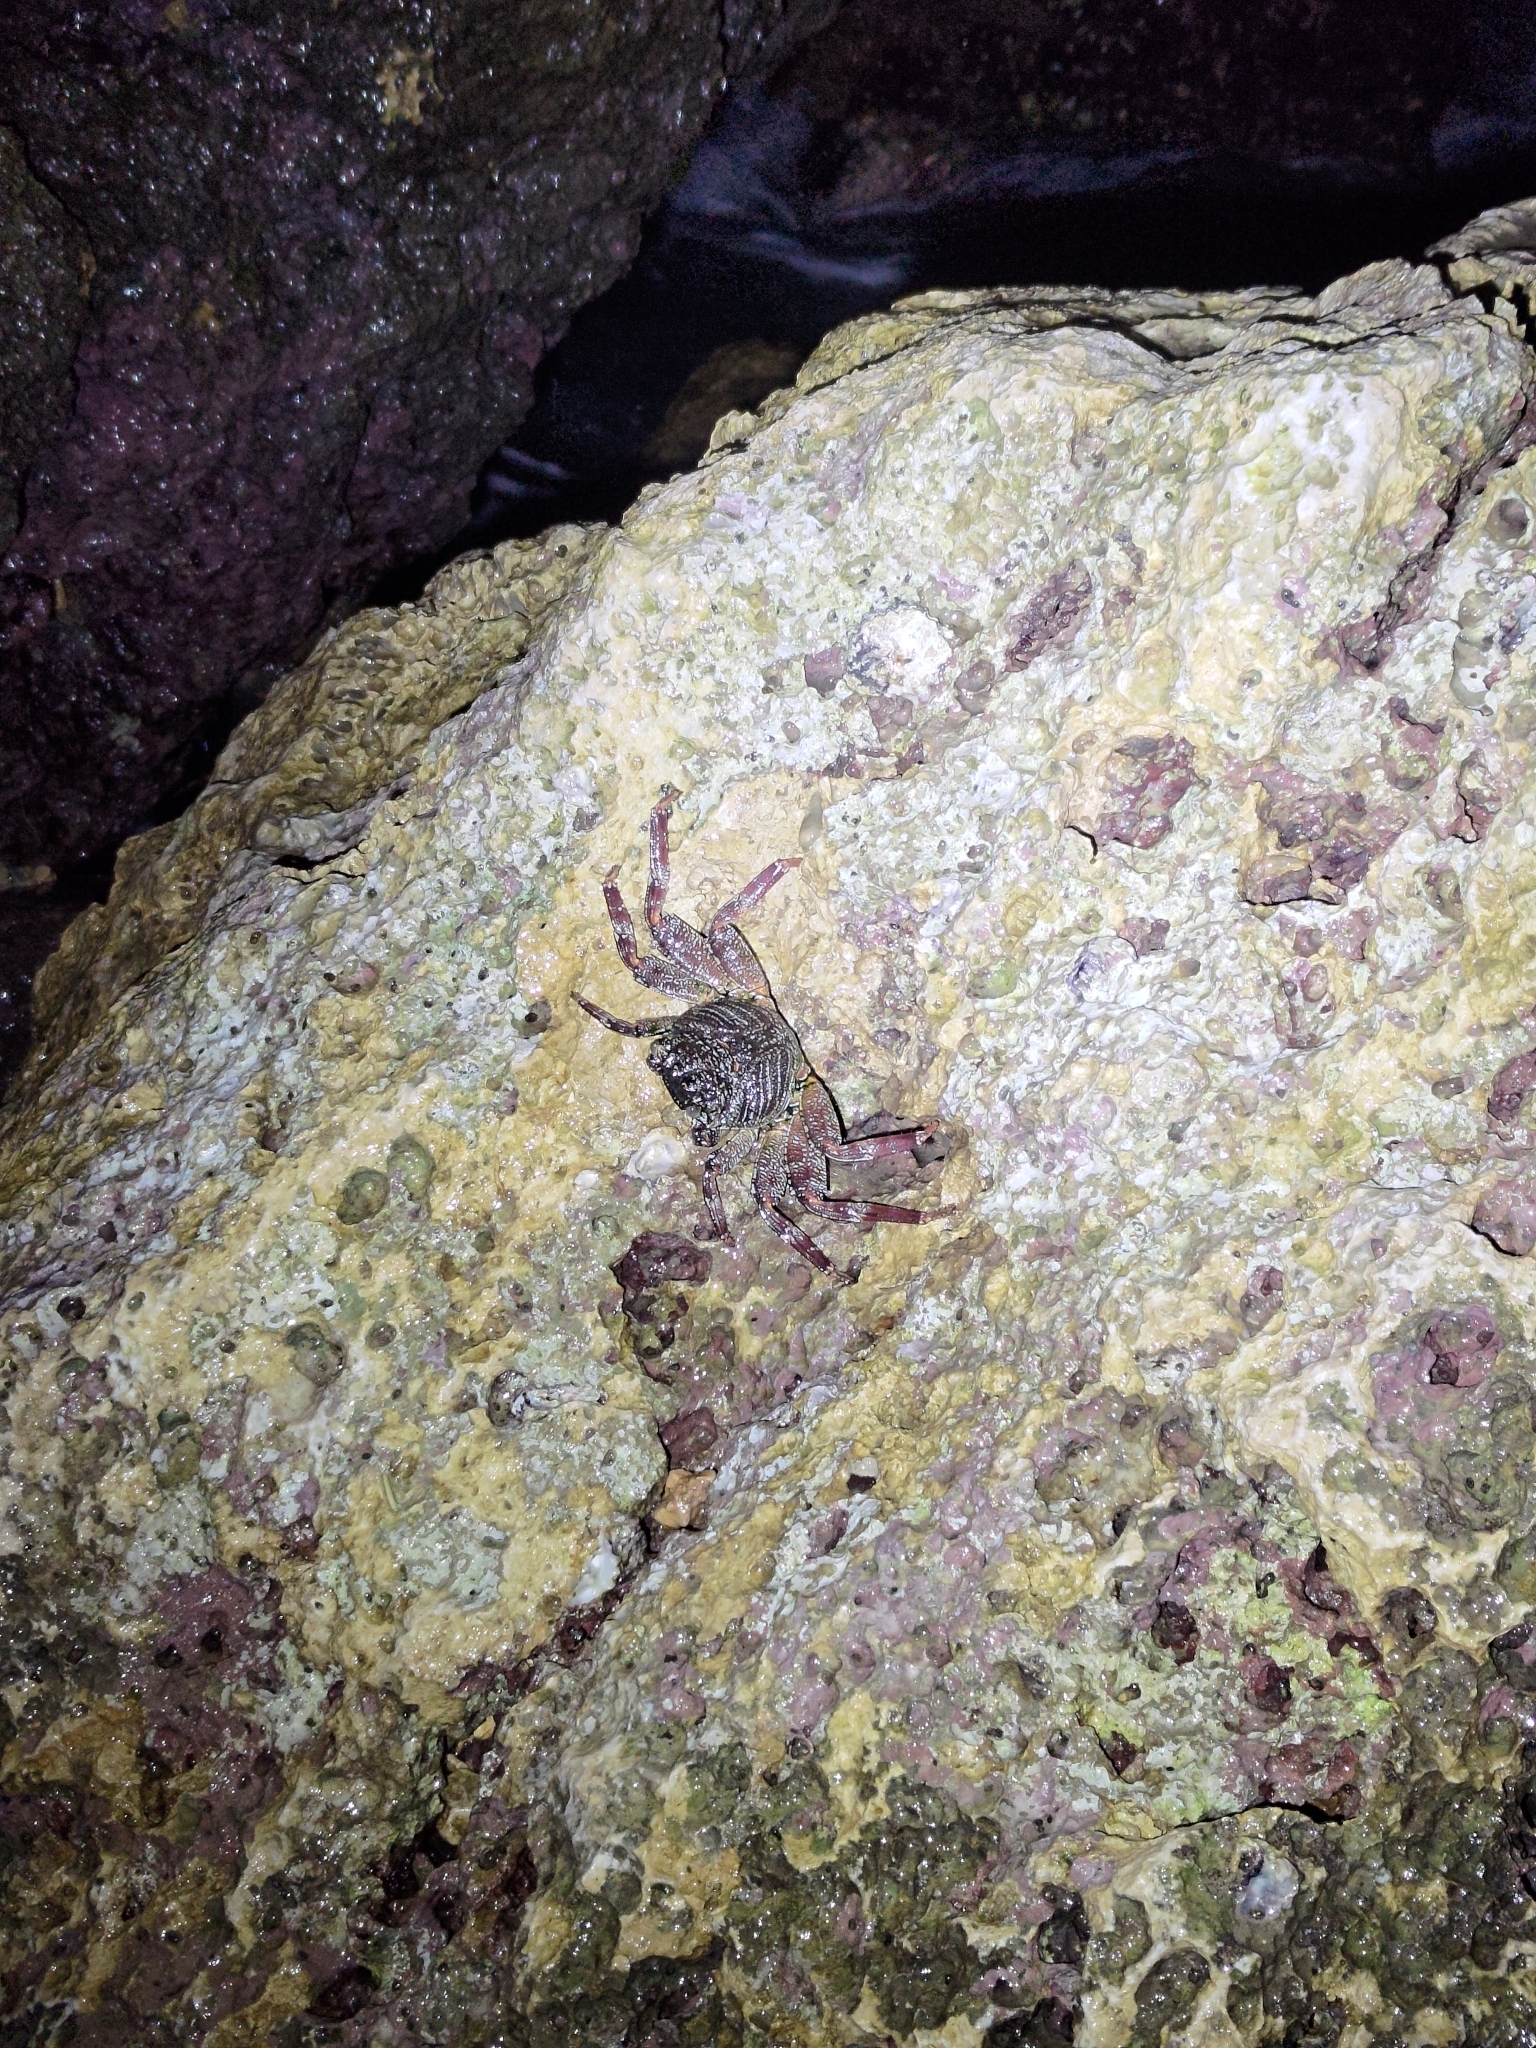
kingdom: Animalia
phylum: Arthropoda
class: Malacostraca
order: Decapoda
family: Grapsidae
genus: Grapsus
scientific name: Grapsus tenuicrustatus
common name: Natal lightfoot crab
